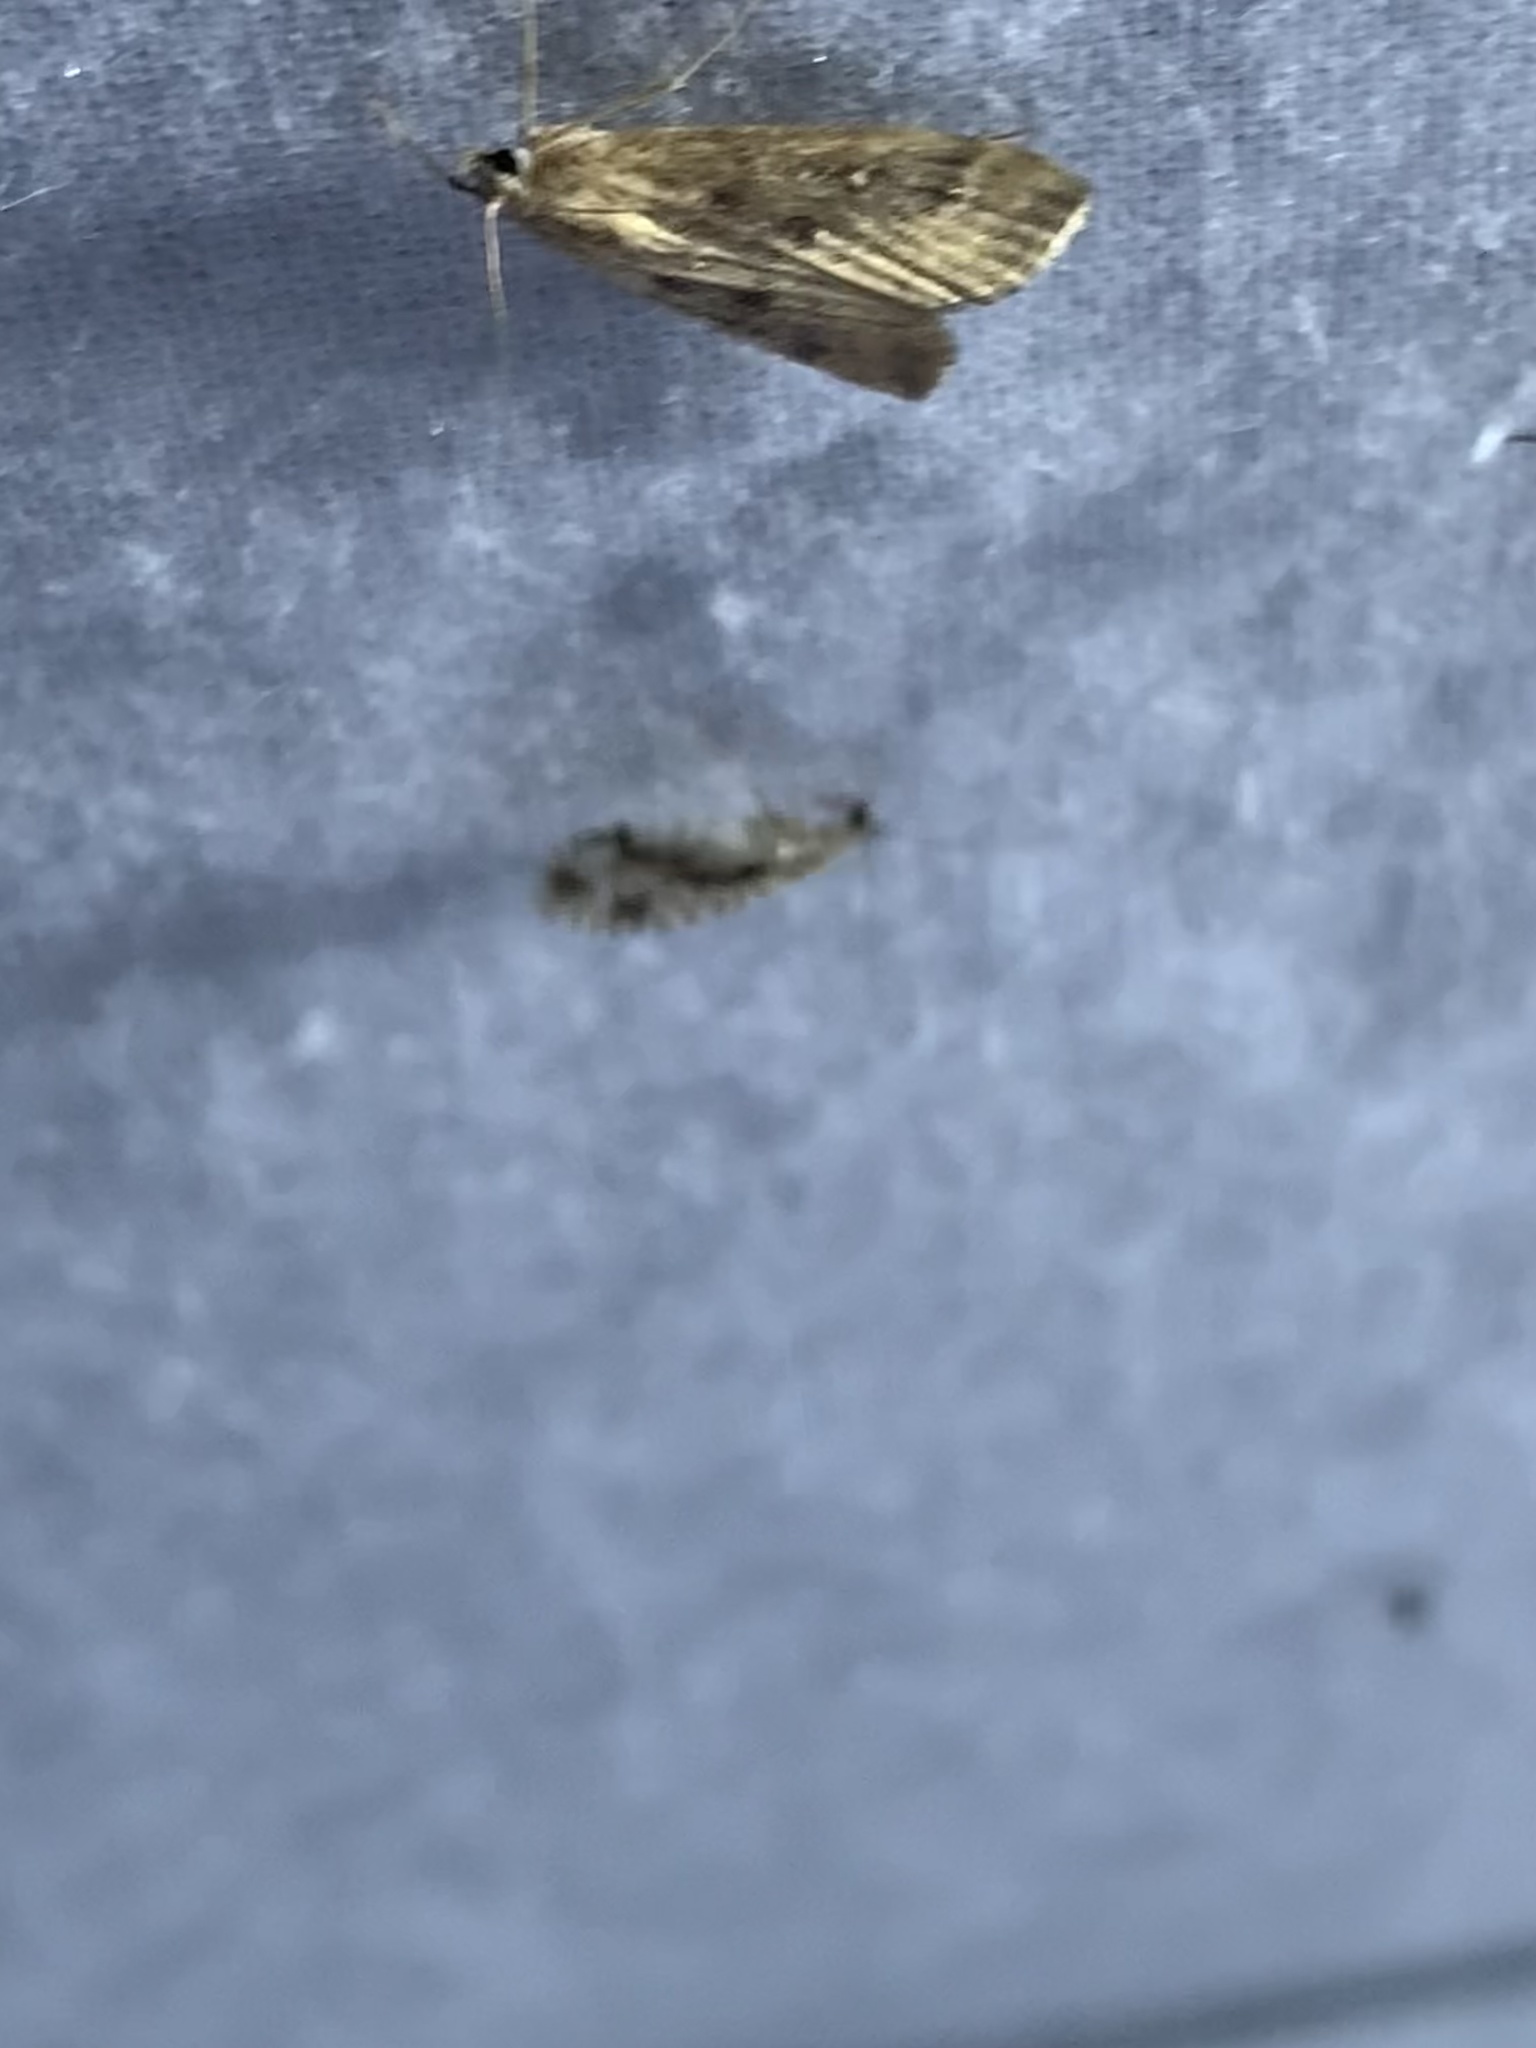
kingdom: Animalia
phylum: Arthropoda
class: Insecta
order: Lepidoptera
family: Crambidae
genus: Parapoynx
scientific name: Parapoynx stratiotata
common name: Ringed china-mark
